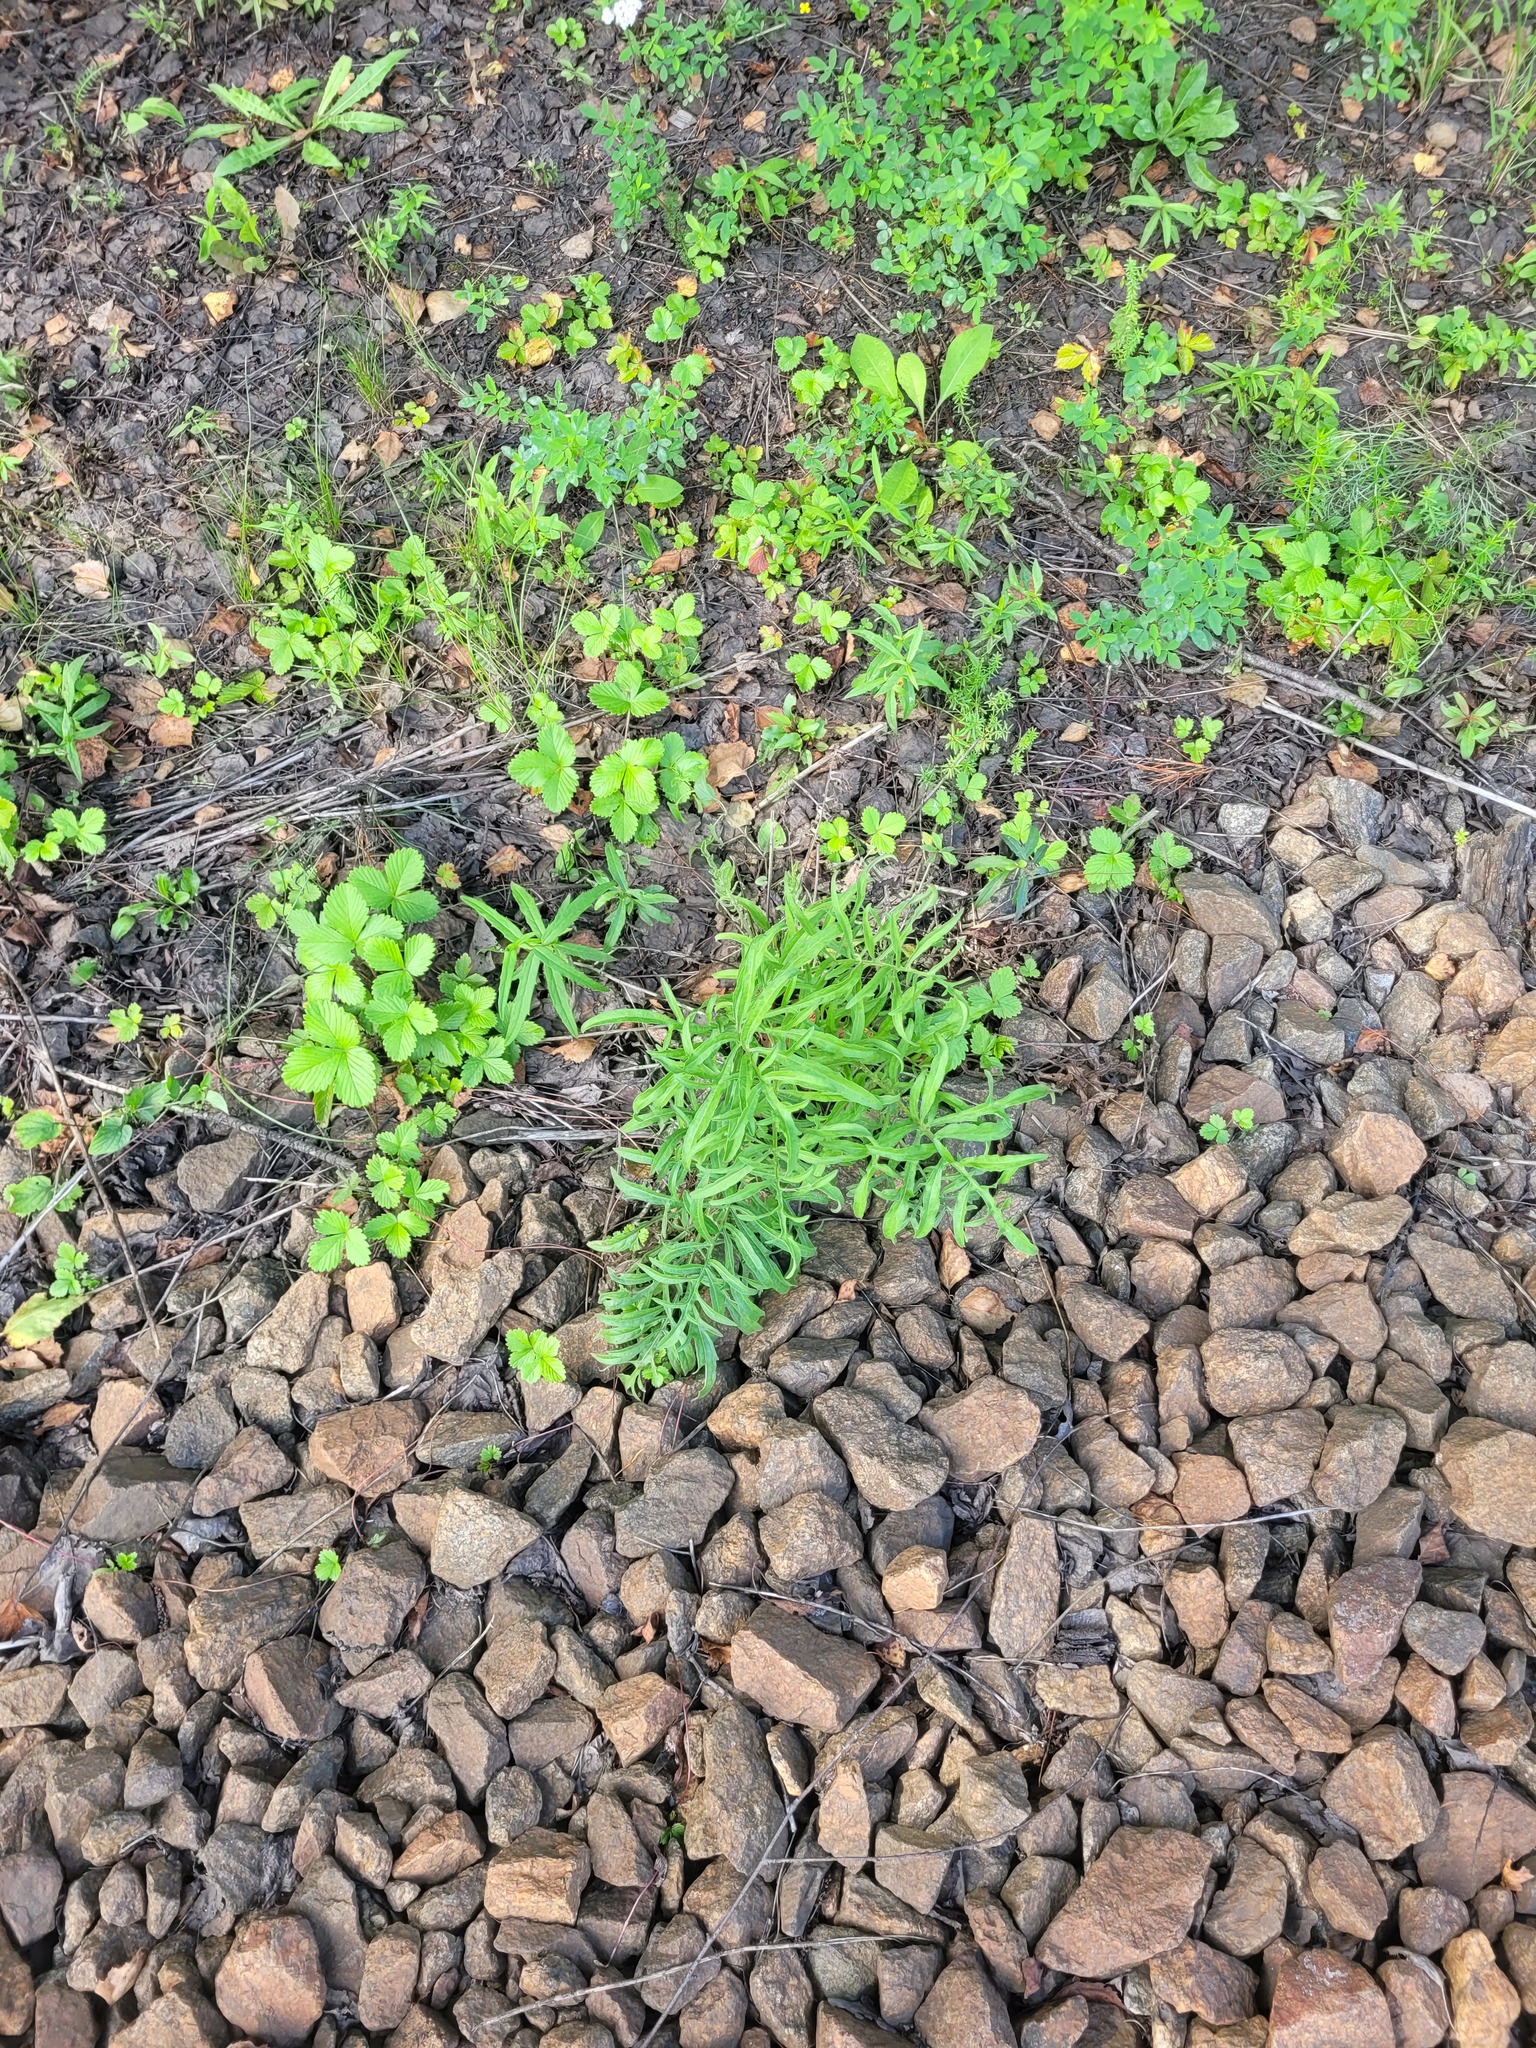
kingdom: Plantae
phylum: Tracheophyta
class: Magnoliopsida
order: Asterales
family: Asteraceae
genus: Centaurea
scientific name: Centaurea scabiosa
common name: Greater knapweed
